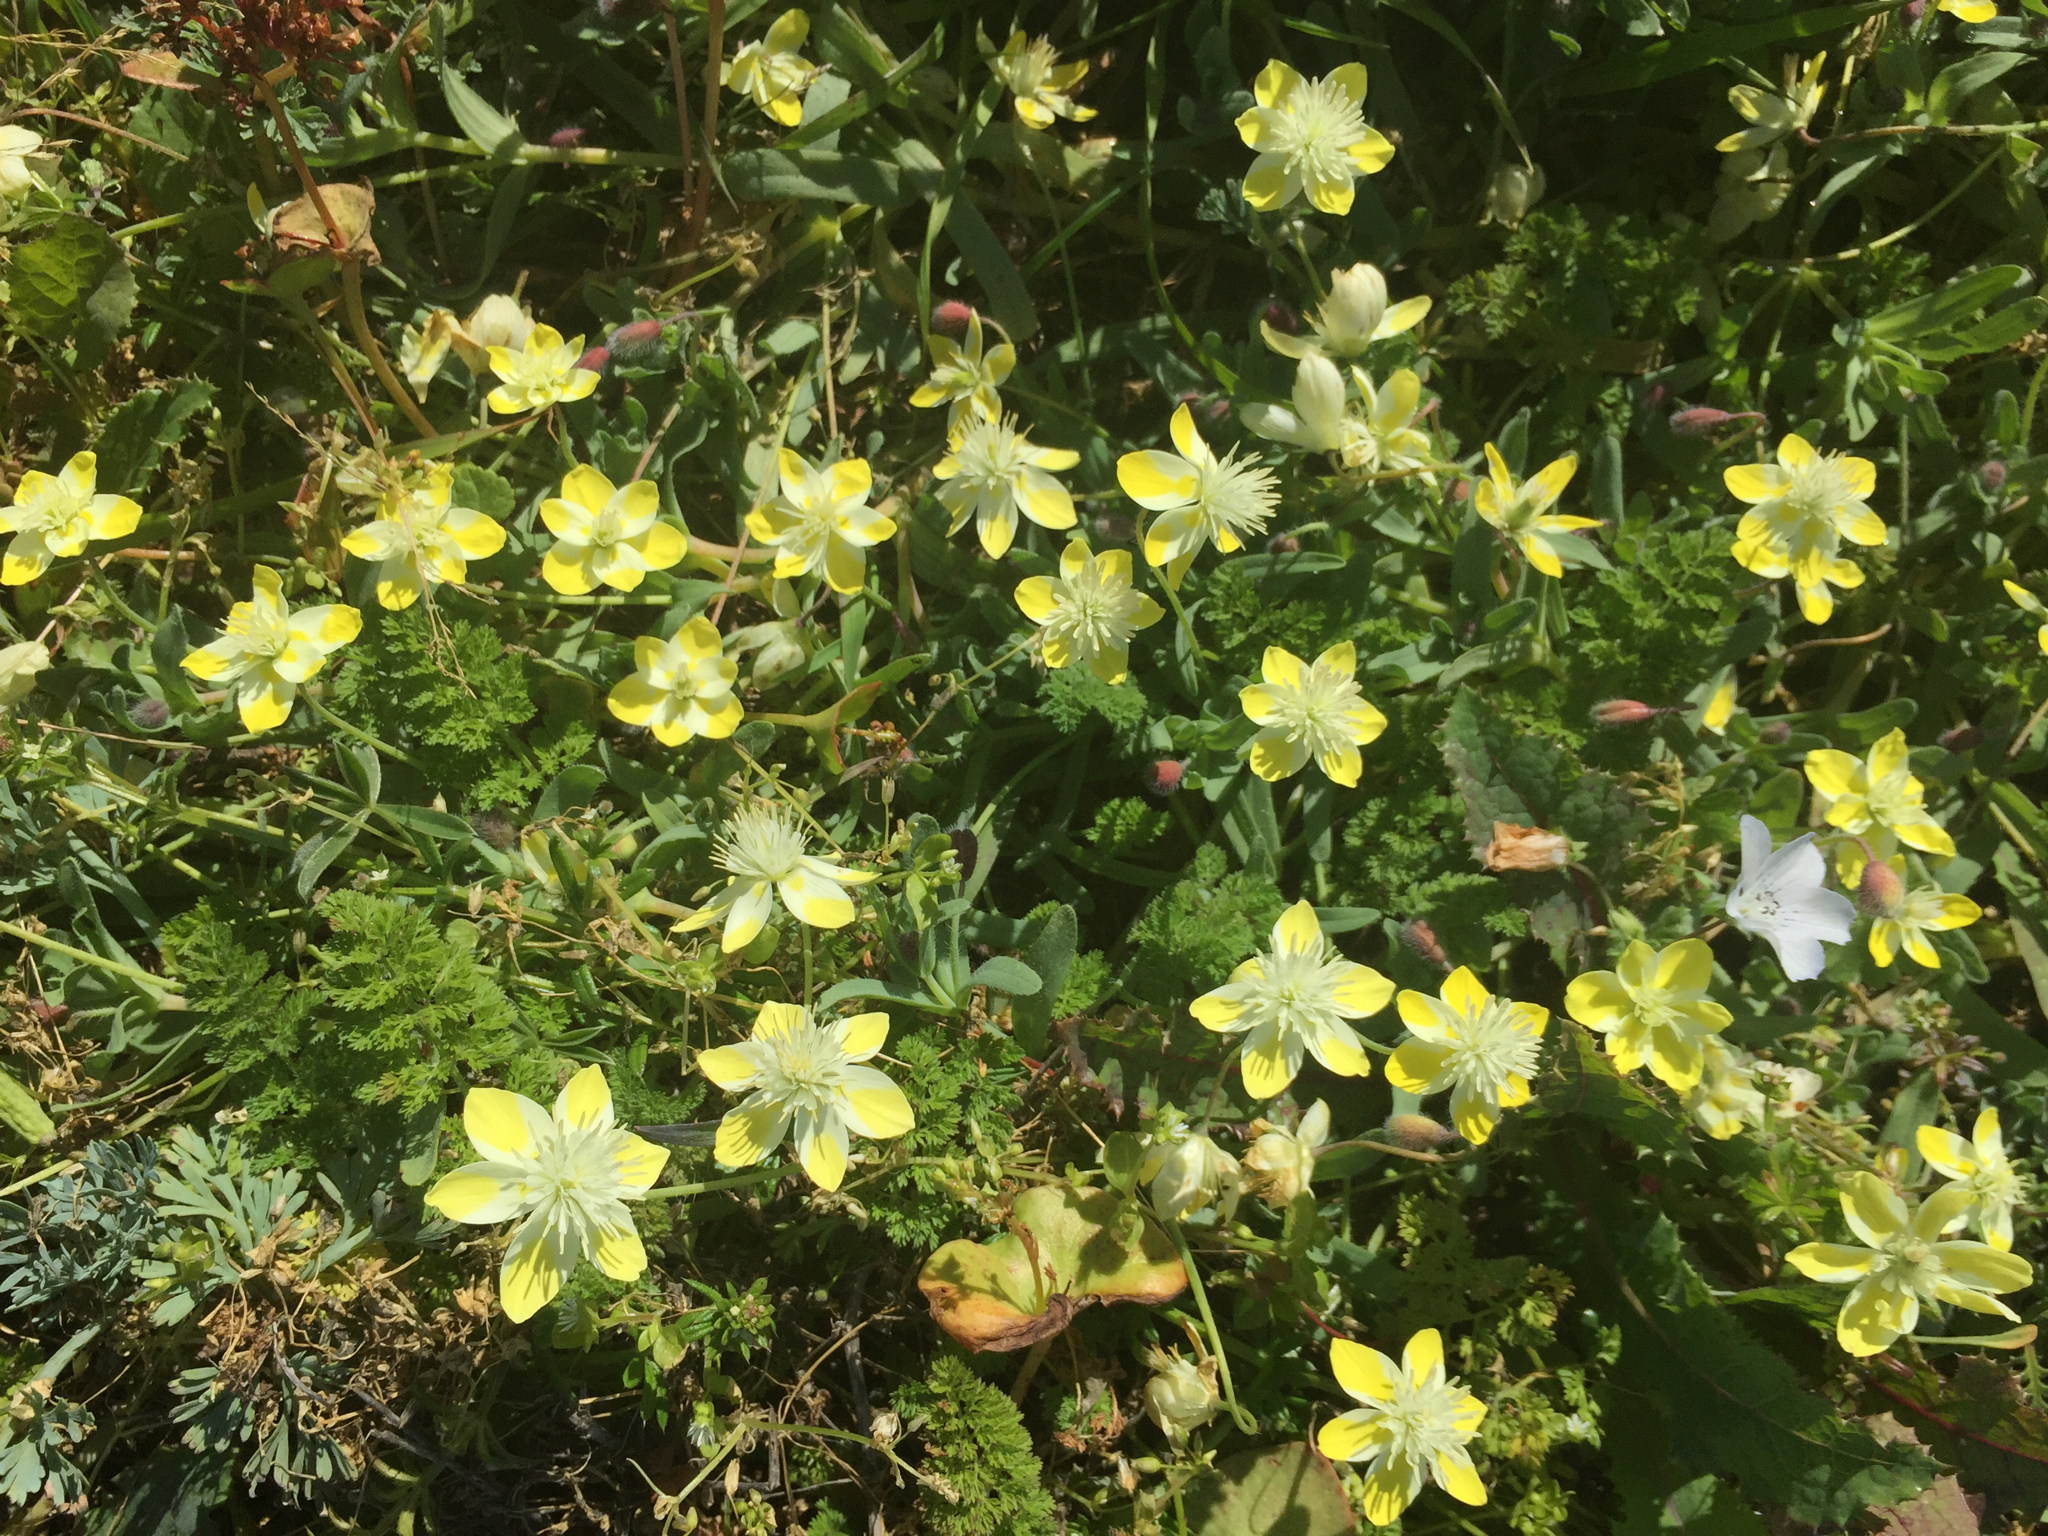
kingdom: Plantae
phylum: Tracheophyta
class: Magnoliopsida
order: Ranunculales
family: Papaveraceae
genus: Platystemon
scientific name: Platystemon californicus
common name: Cream-cups
